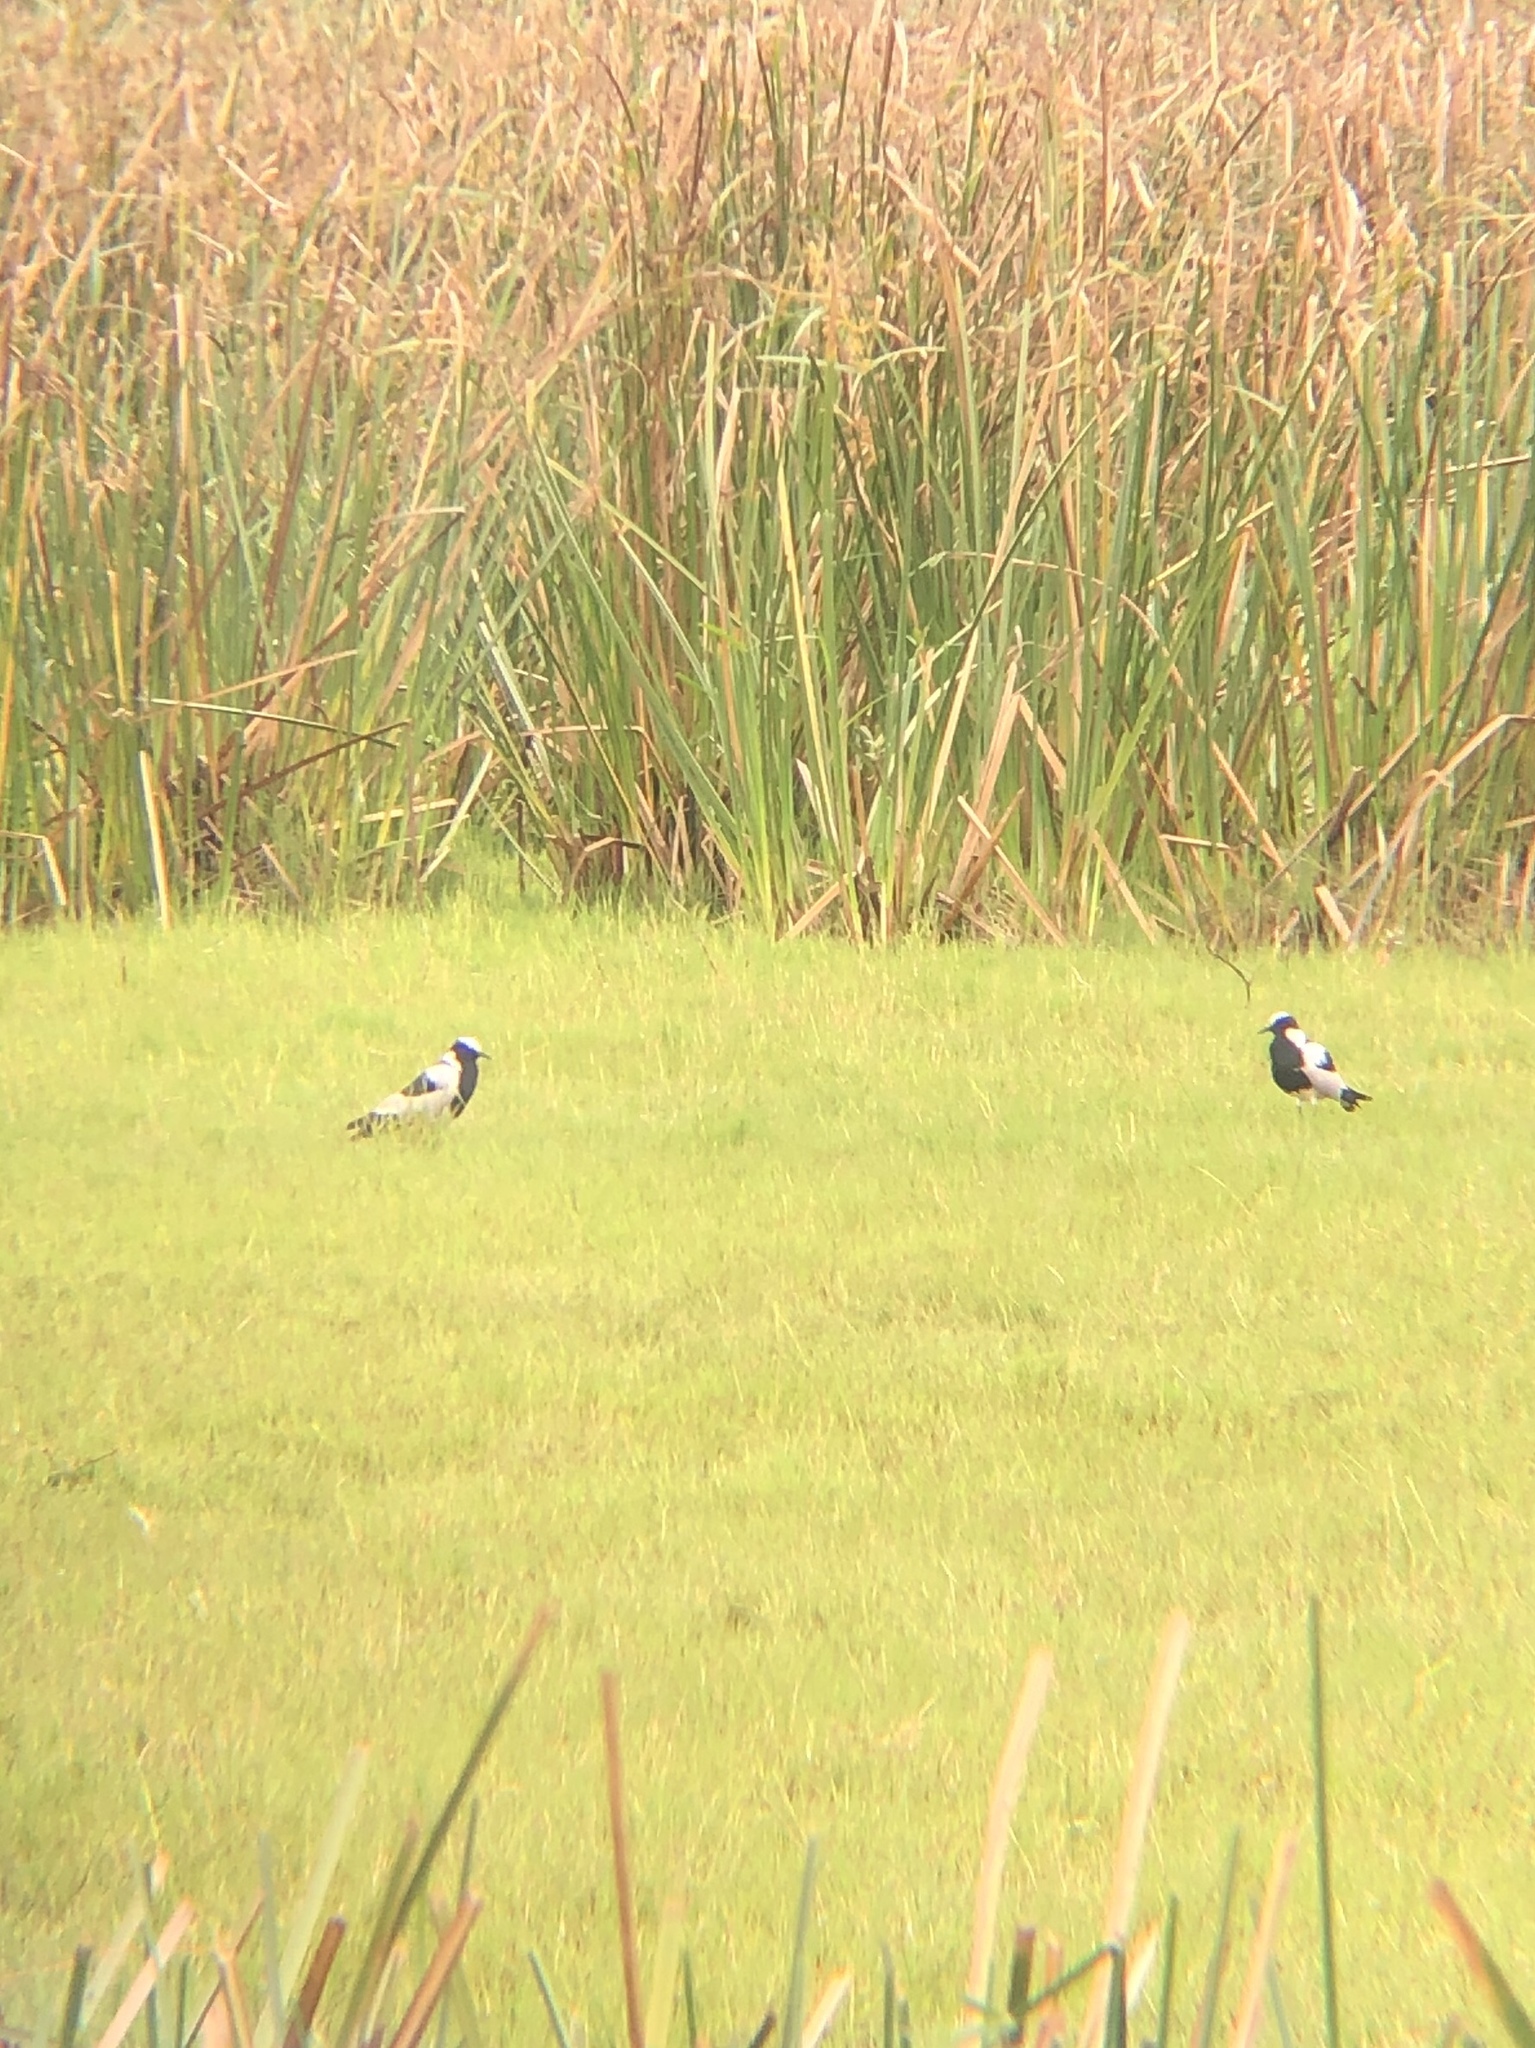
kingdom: Animalia
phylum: Chordata
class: Aves
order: Charadriiformes
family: Charadriidae
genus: Vanellus
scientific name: Vanellus armatus
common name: Blacksmith lapwing
